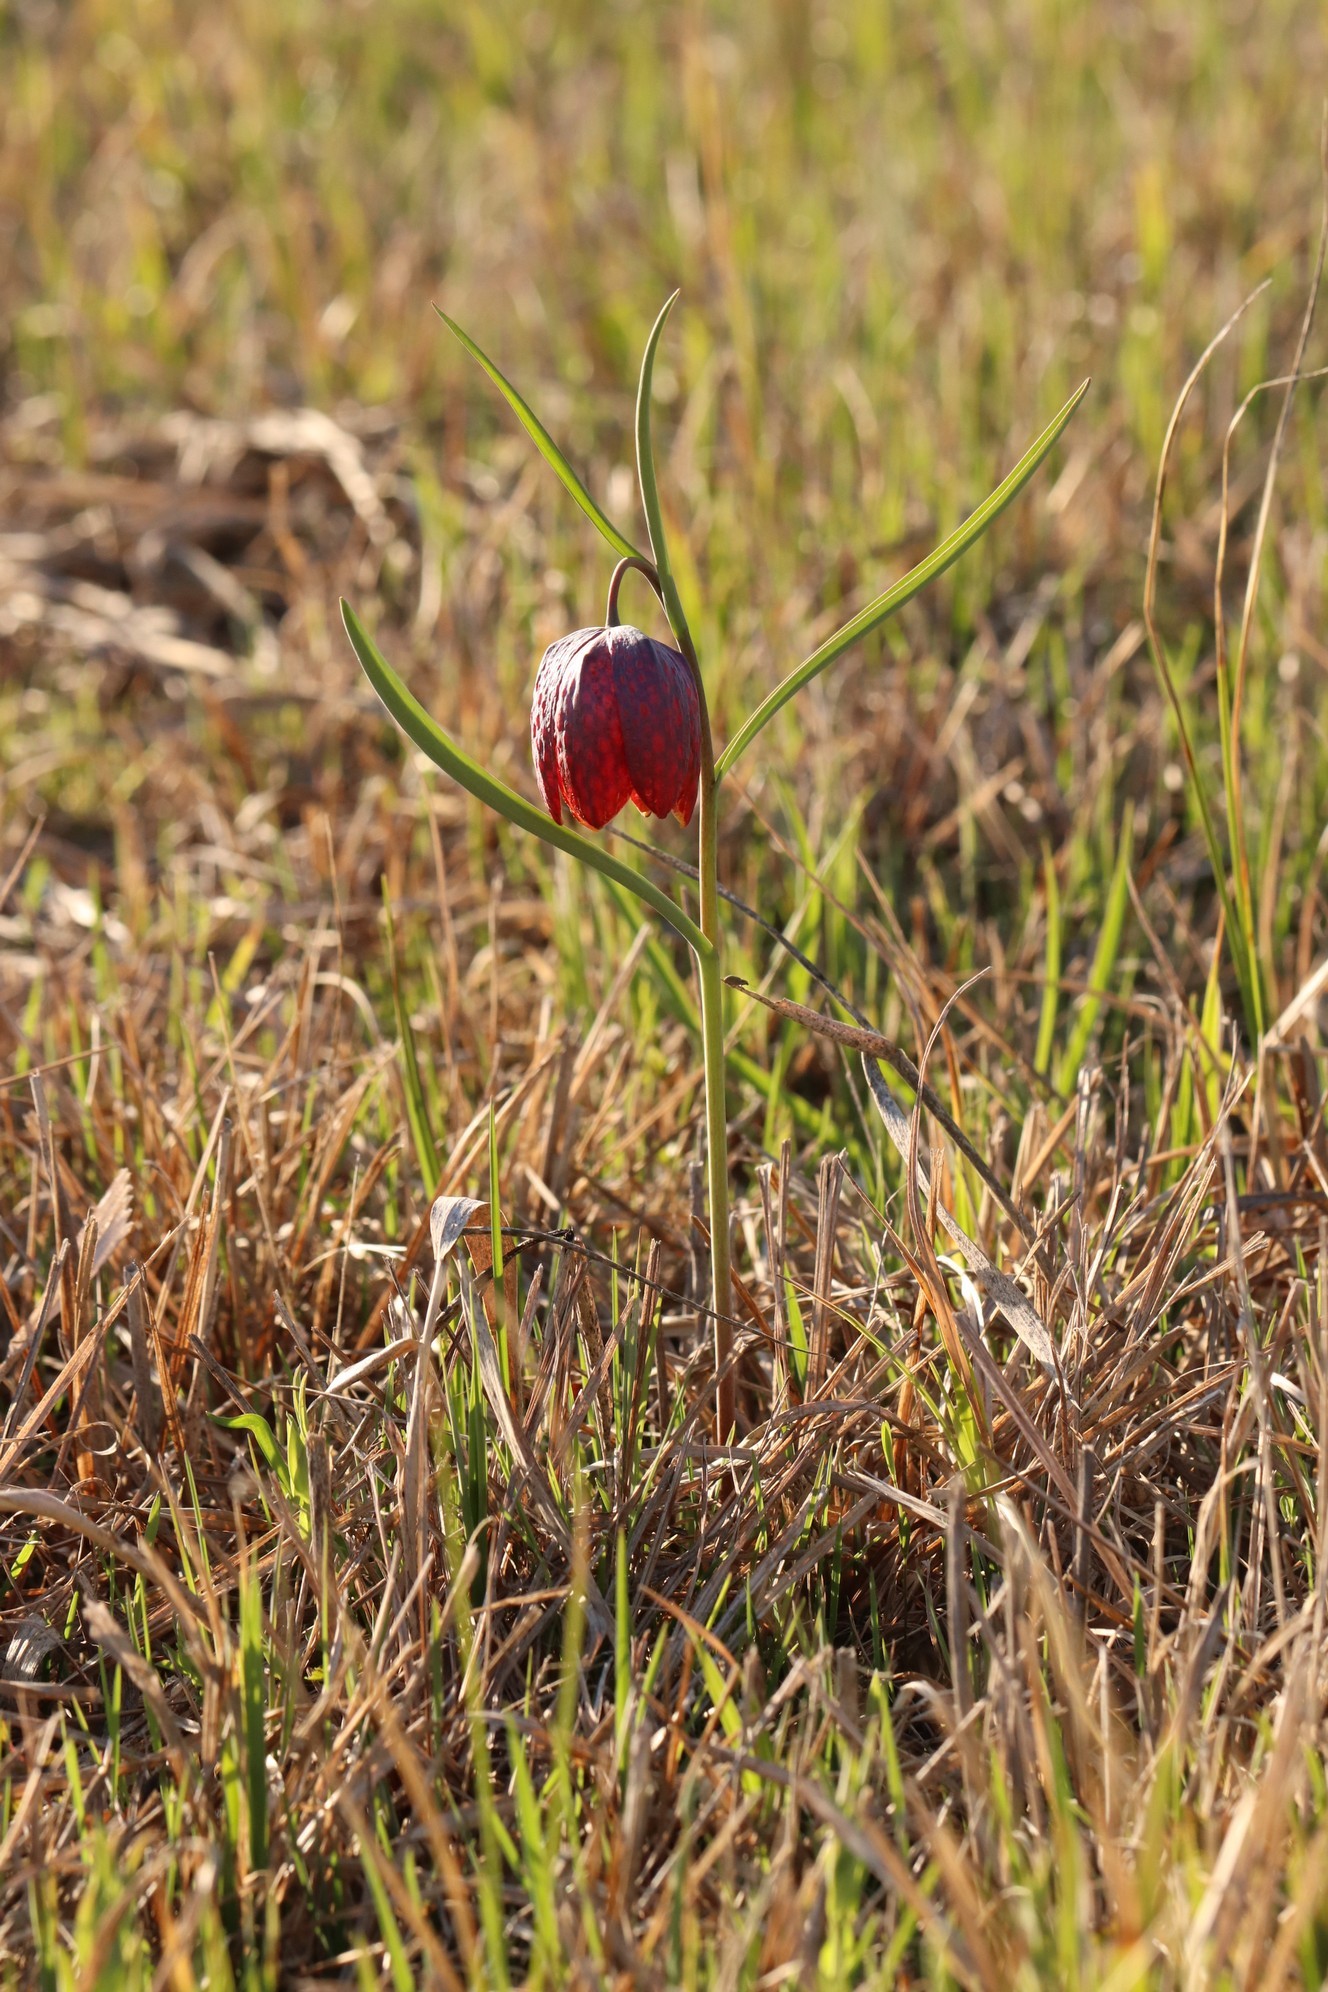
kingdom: Plantae
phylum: Tracheophyta
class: Liliopsida
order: Liliales
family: Liliaceae
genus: Fritillaria
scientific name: Fritillaria meleagris
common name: Fritillary
